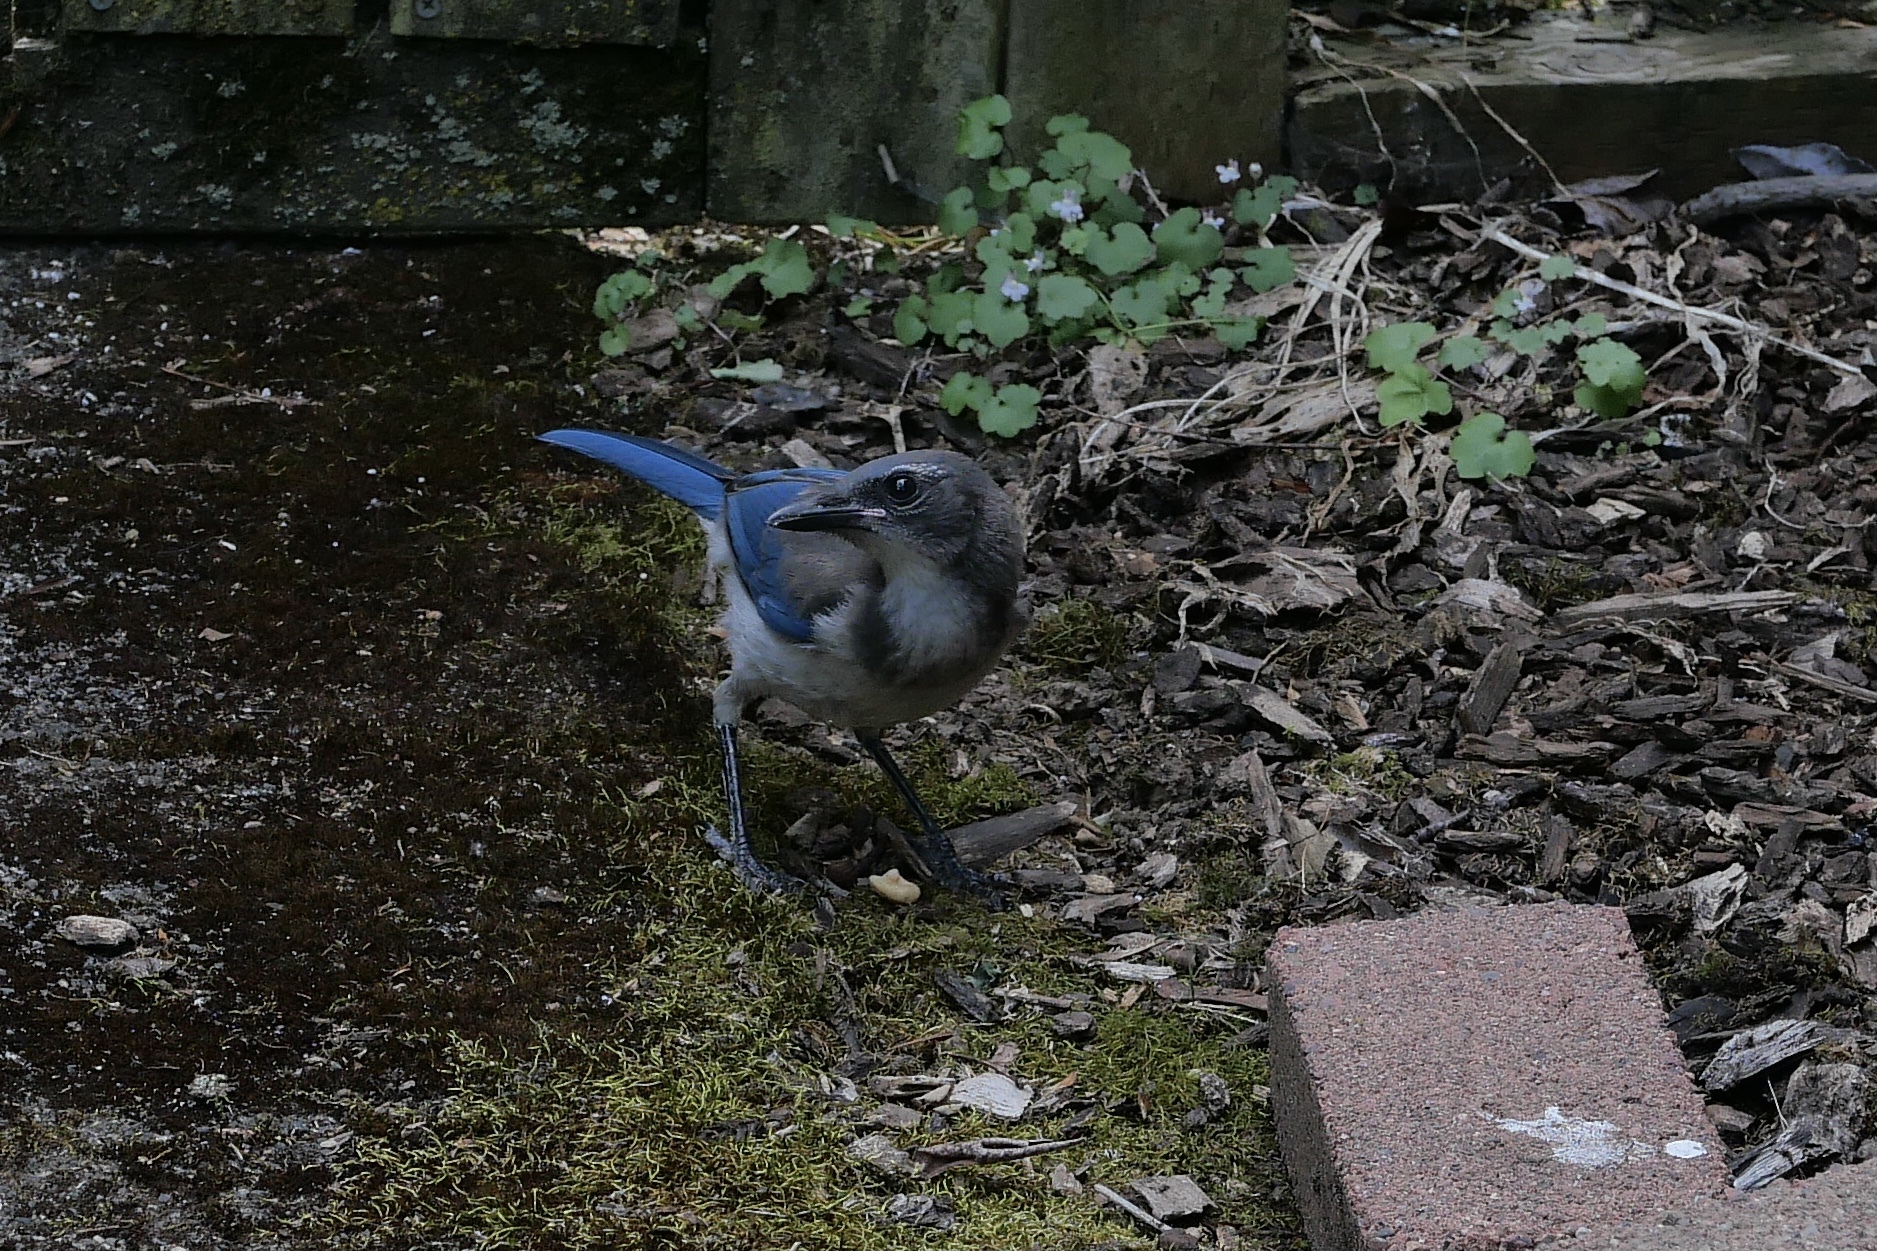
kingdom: Animalia
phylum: Chordata
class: Aves
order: Passeriformes
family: Corvidae
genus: Aphelocoma
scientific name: Aphelocoma californica
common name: California scrub-jay
